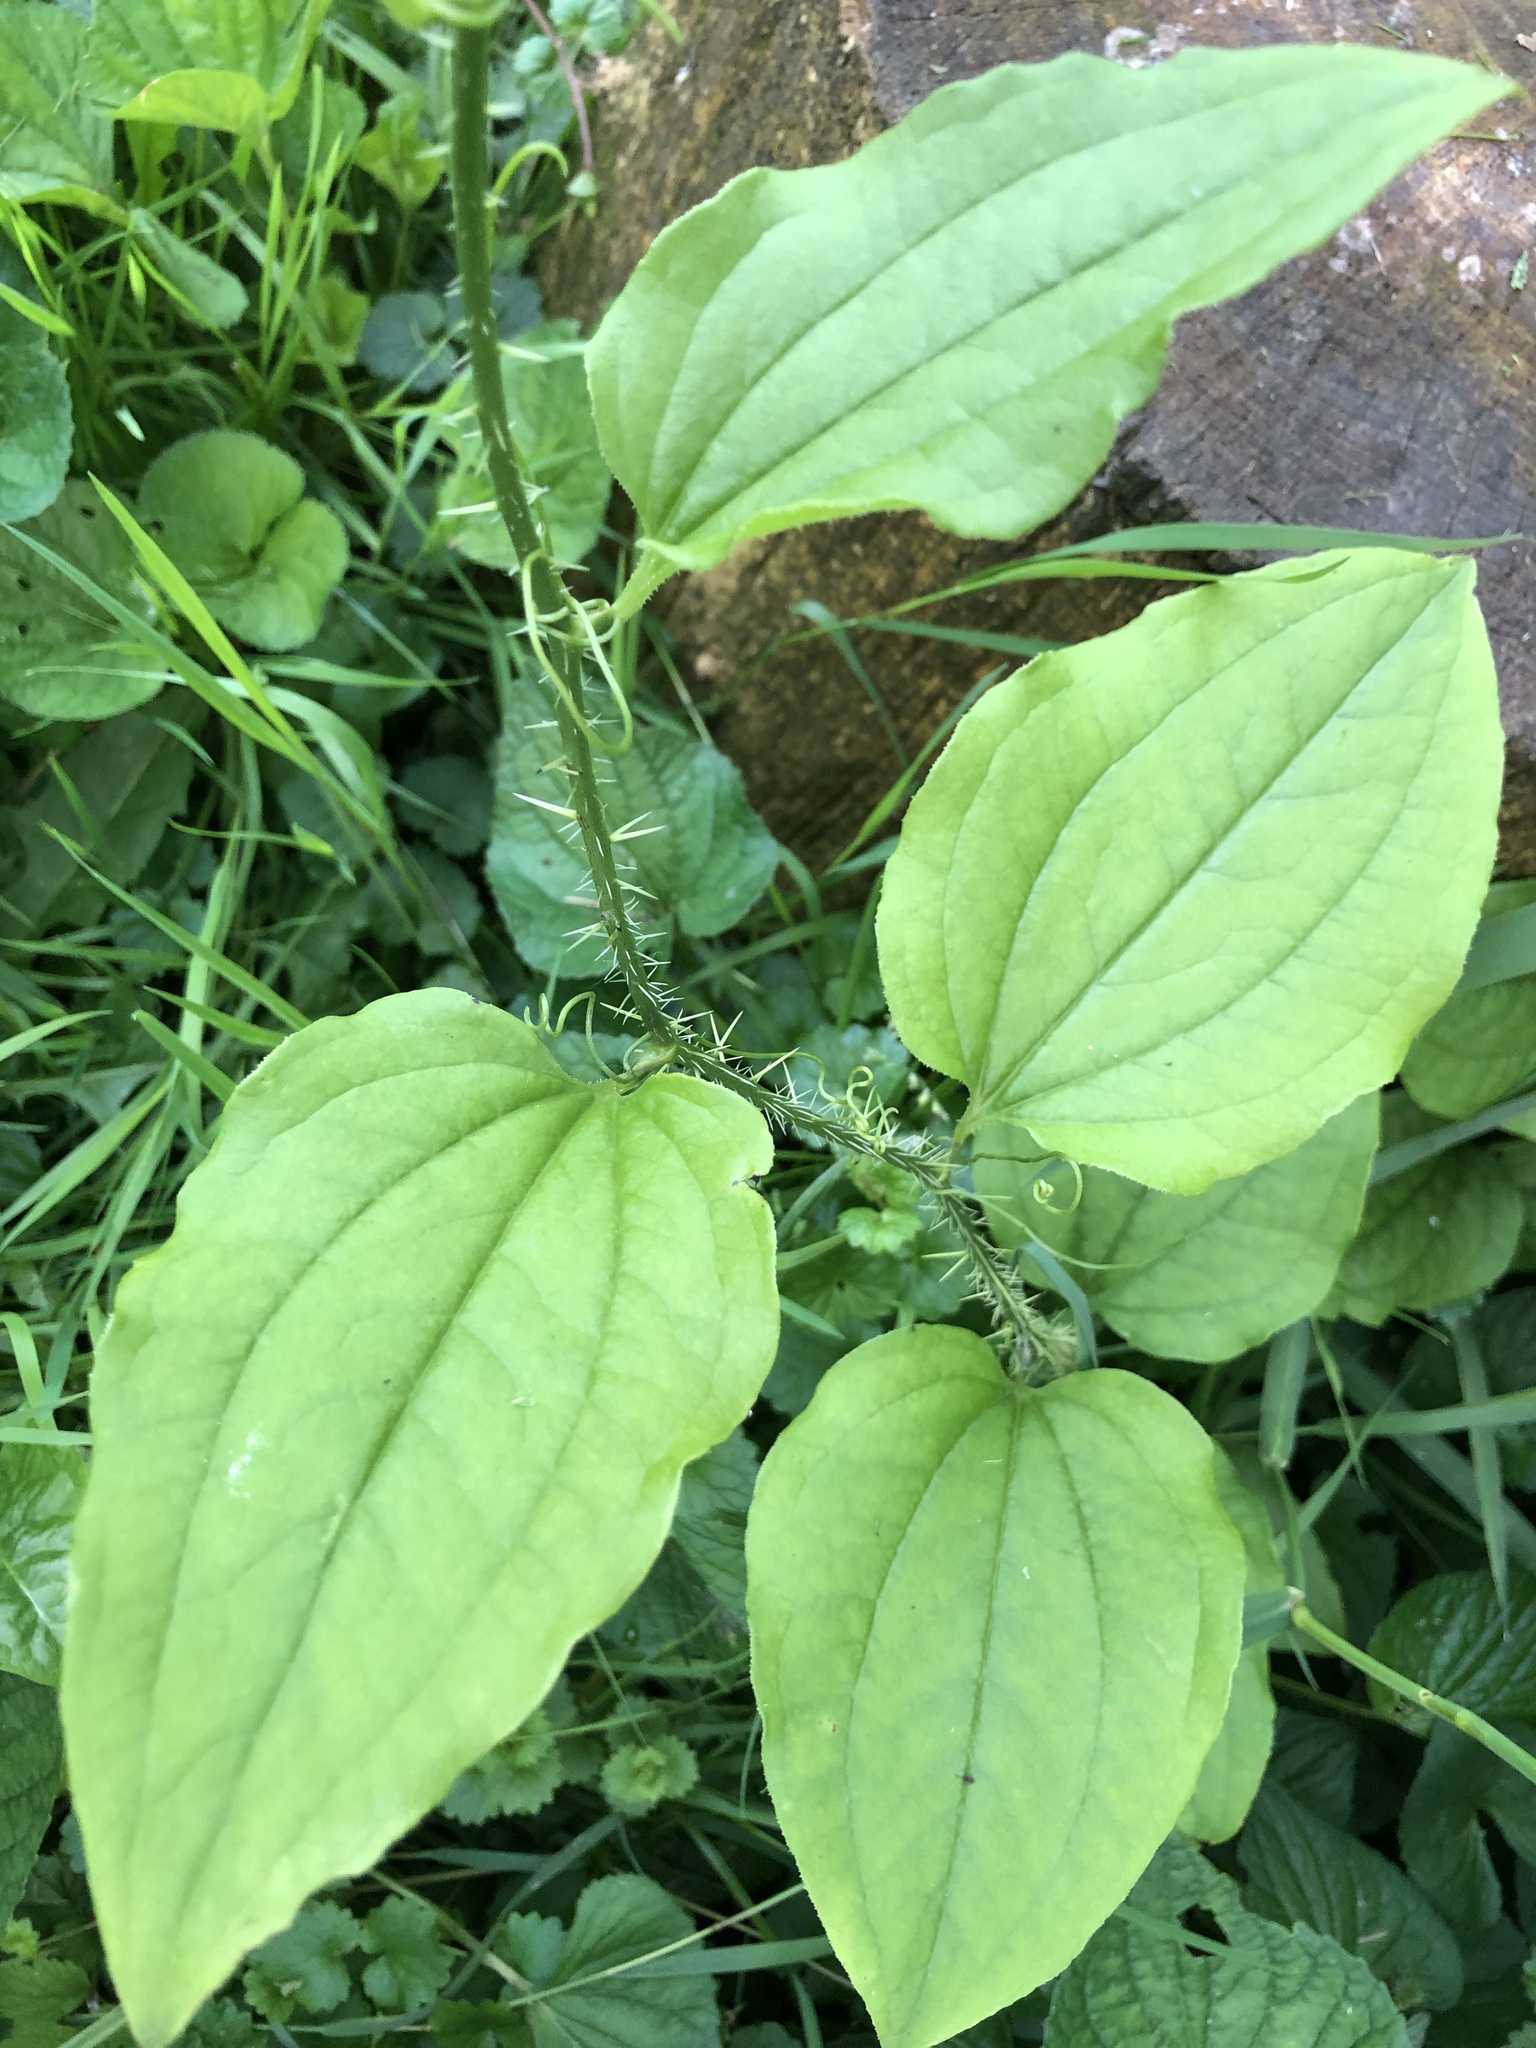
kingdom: Plantae
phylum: Tracheophyta
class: Liliopsida
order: Liliales
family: Smilacaceae
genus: Smilax
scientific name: Smilax tamnoides
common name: Hellfetter
